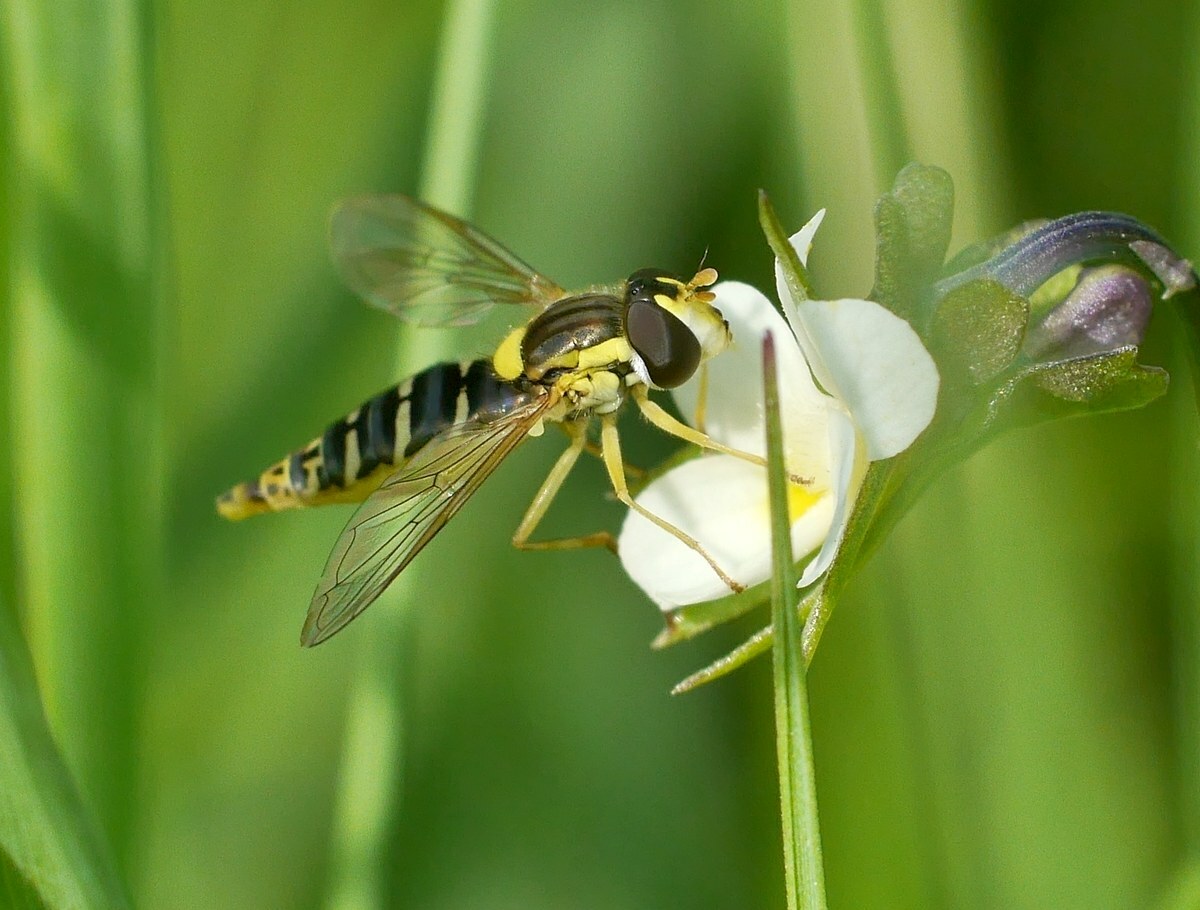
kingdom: Animalia
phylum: Arthropoda
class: Insecta
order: Diptera
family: Syrphidae
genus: Sphaerophoria
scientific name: Sphaerophoria
